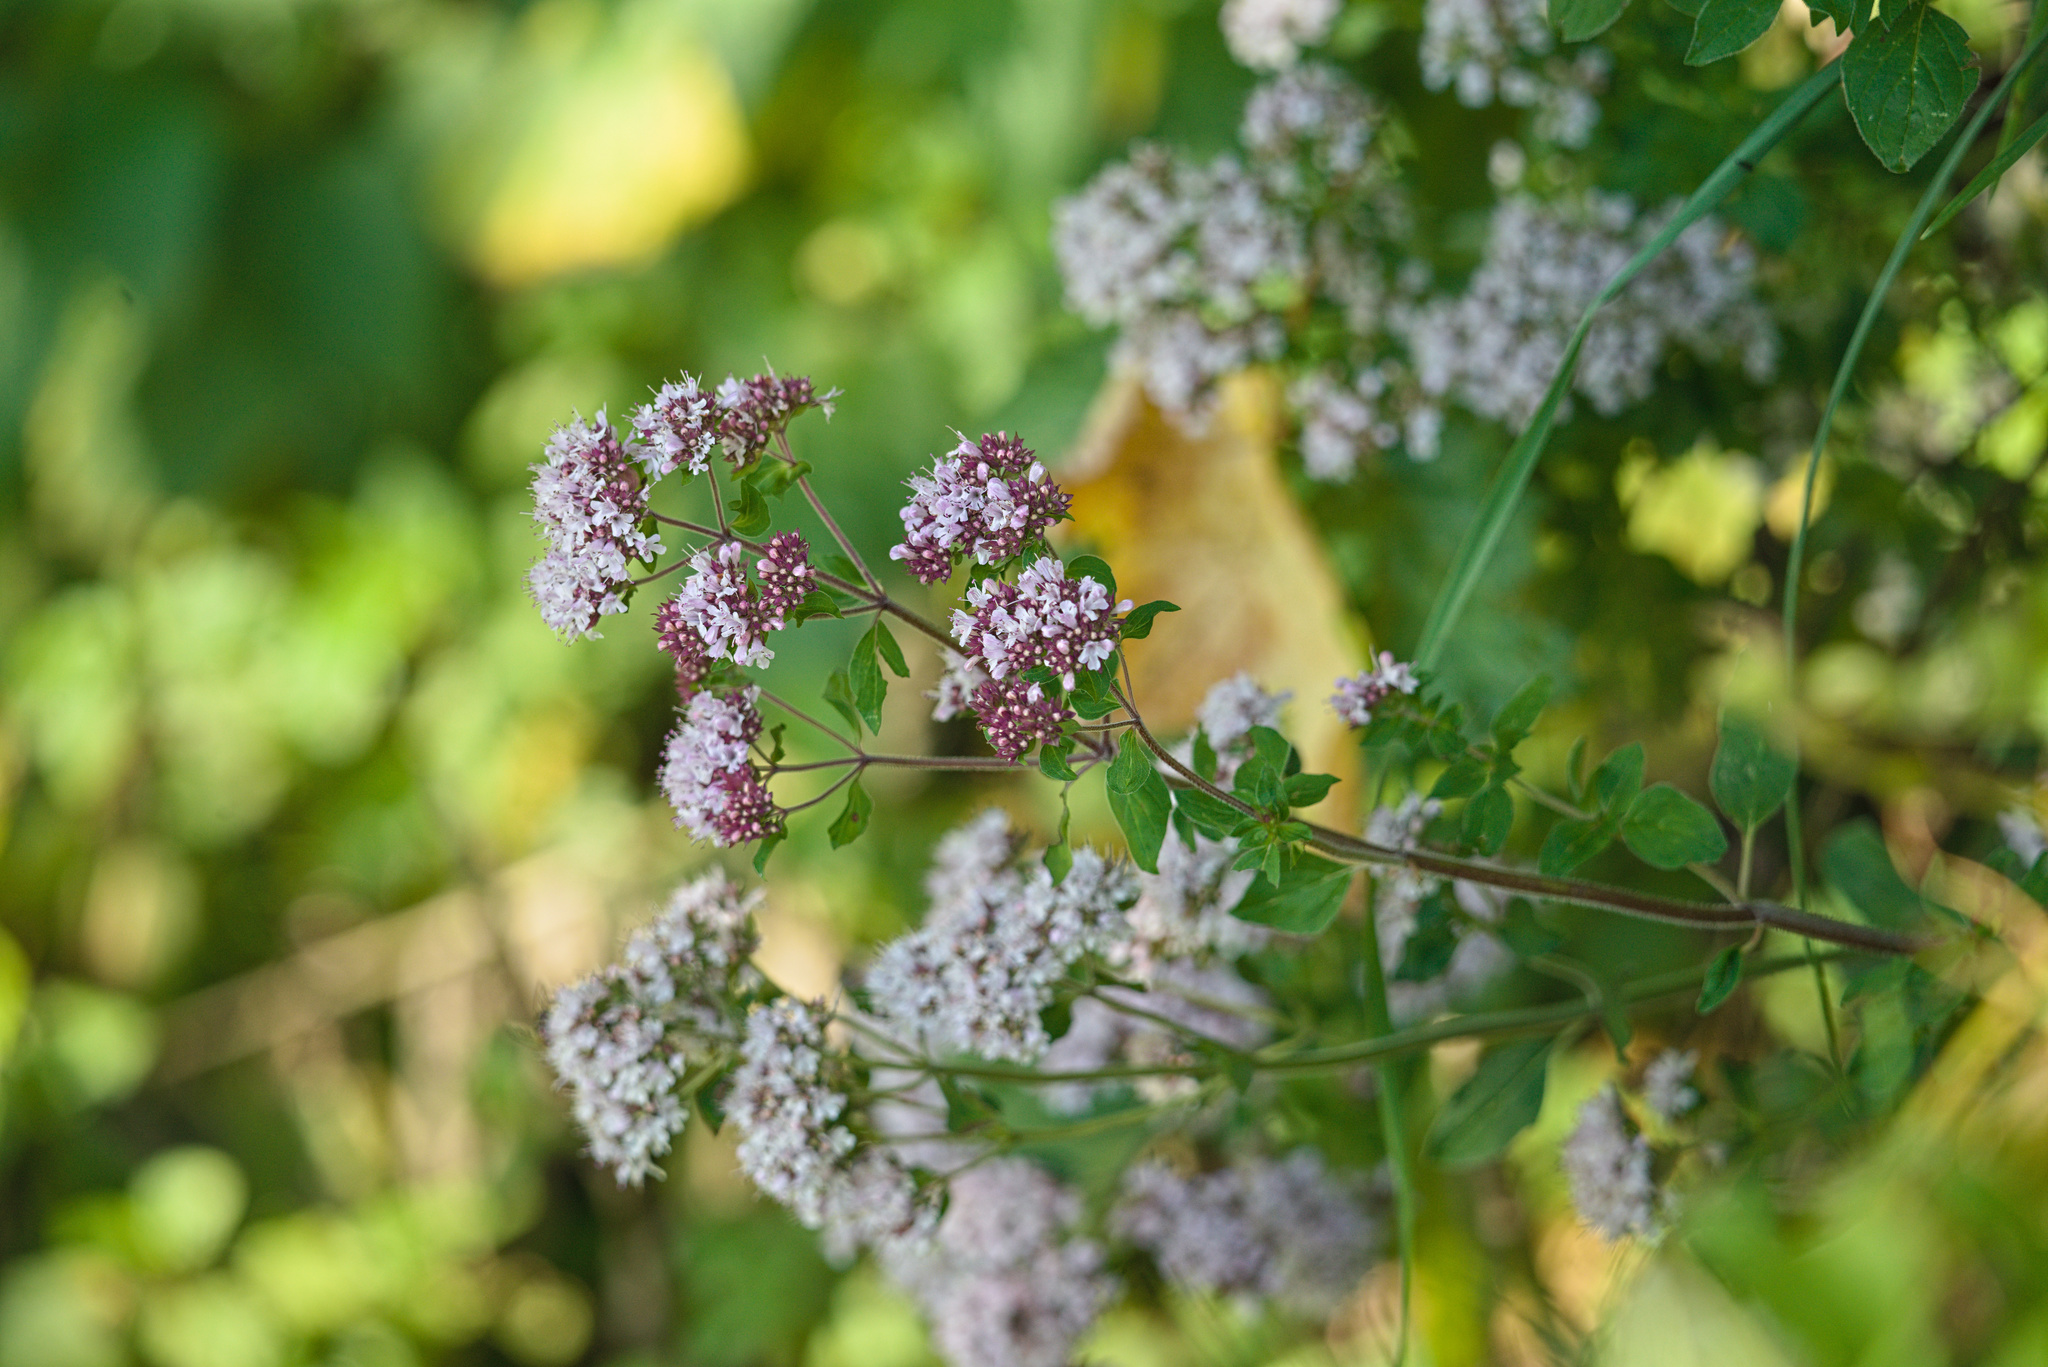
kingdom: Plantae
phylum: Tracheophyta
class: Magnoliopsida
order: Lamiales
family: Lamiaceae
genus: Origanum
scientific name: Origanum vulgare
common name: Wild marjoram
